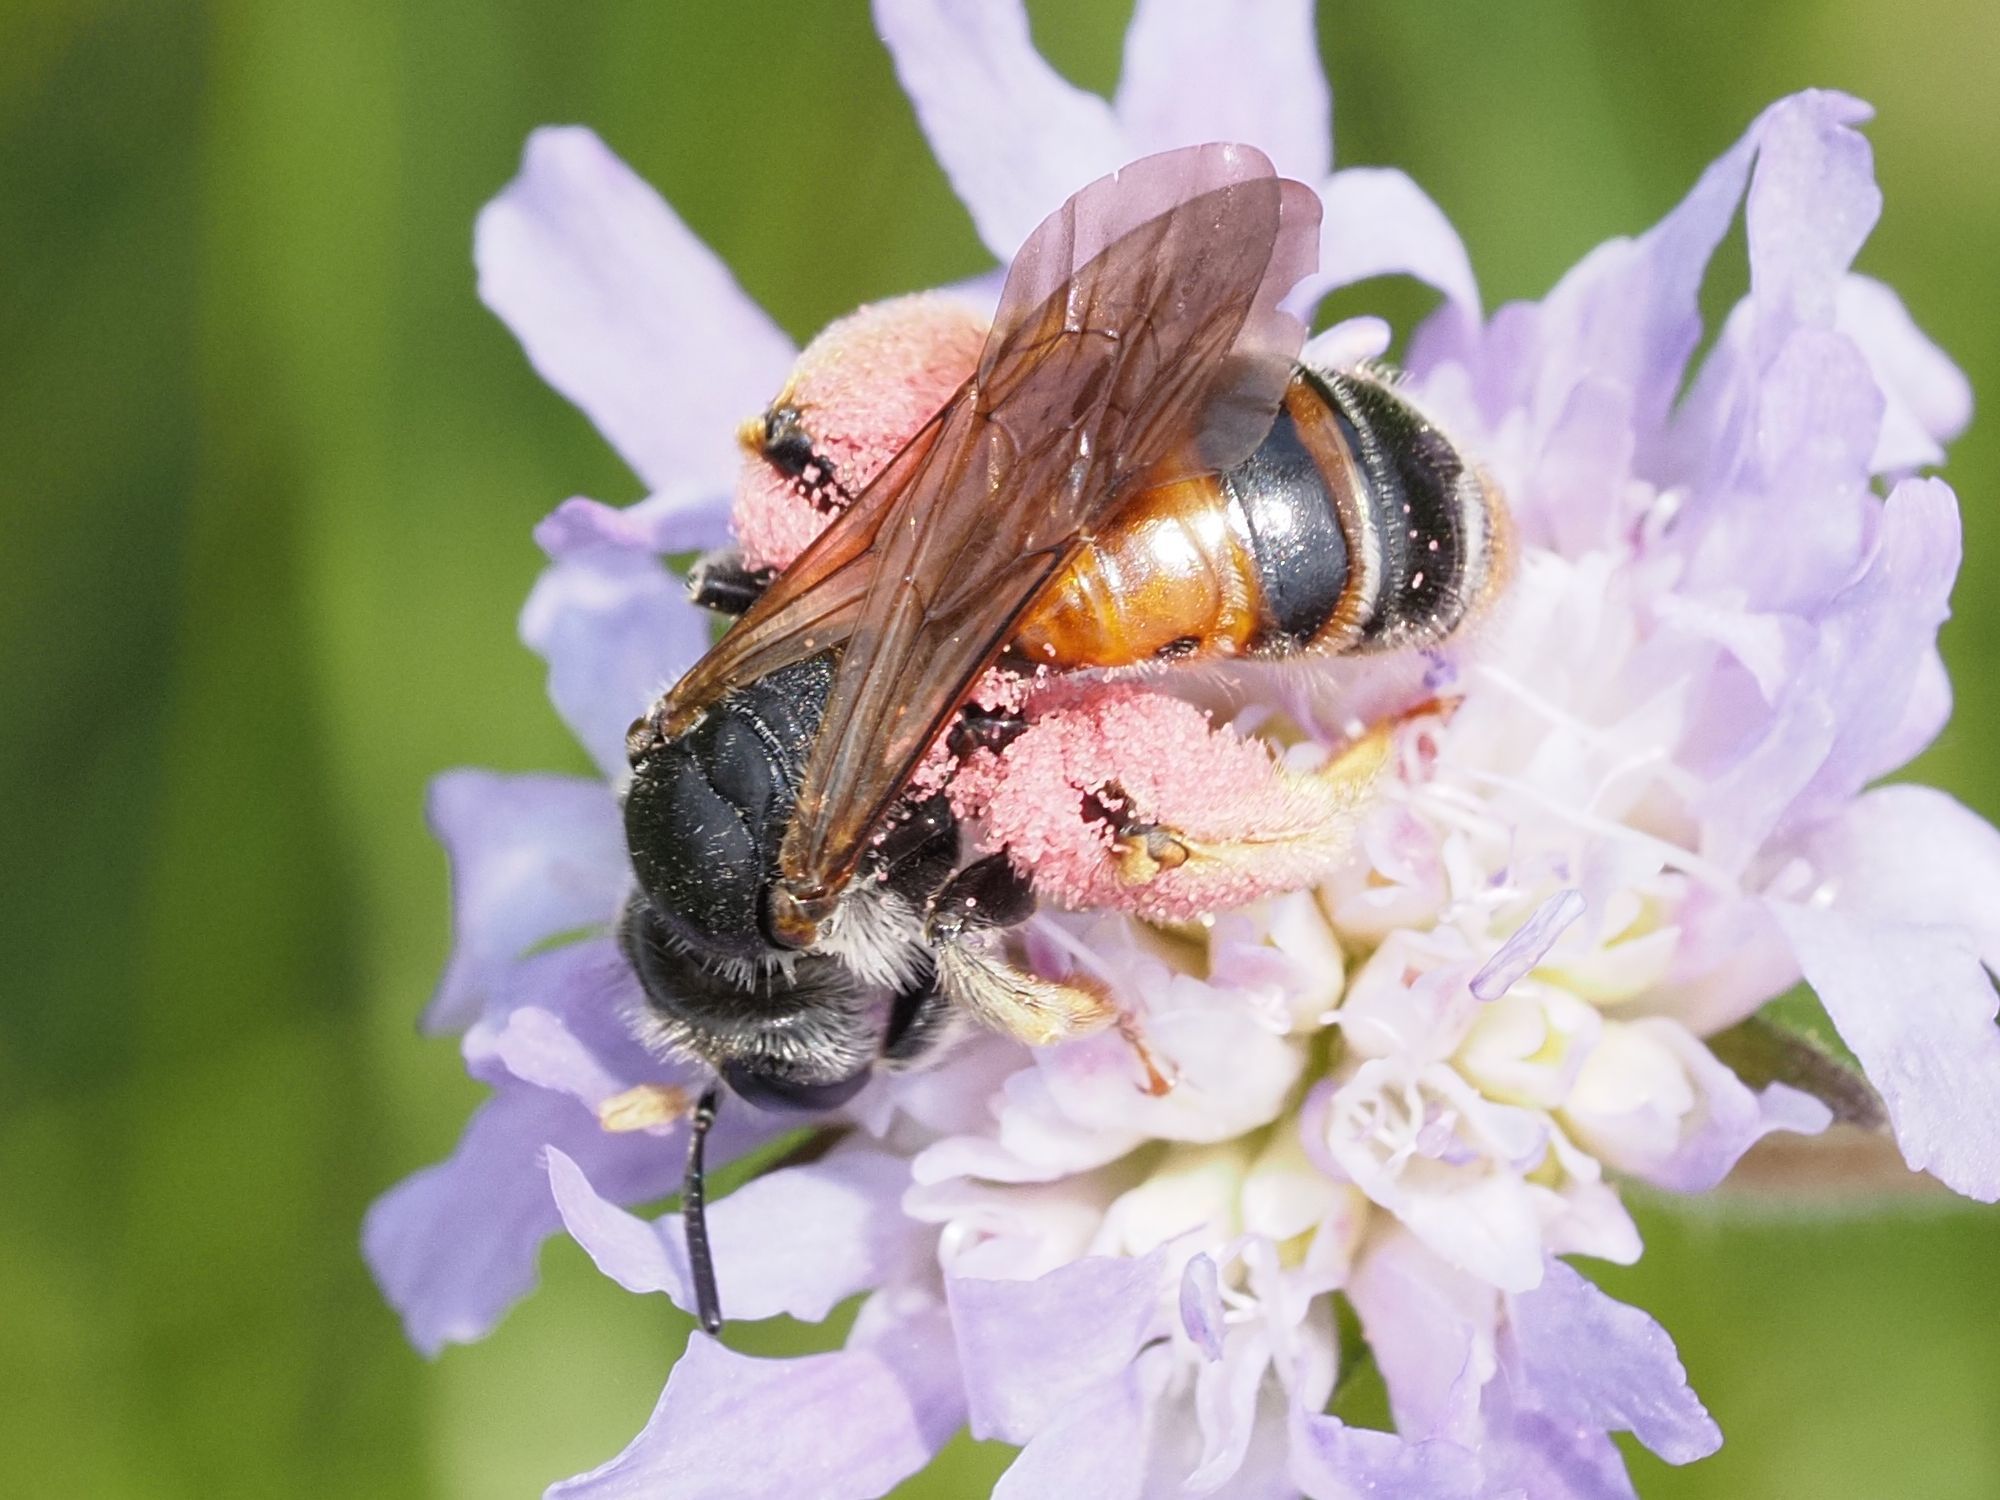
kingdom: Animalia
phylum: Arthropoda
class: Insecta
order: Hymenoptera
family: Andrenidae
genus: Andrena
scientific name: Andrena hattorfiana
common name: Large scabious mining bee
